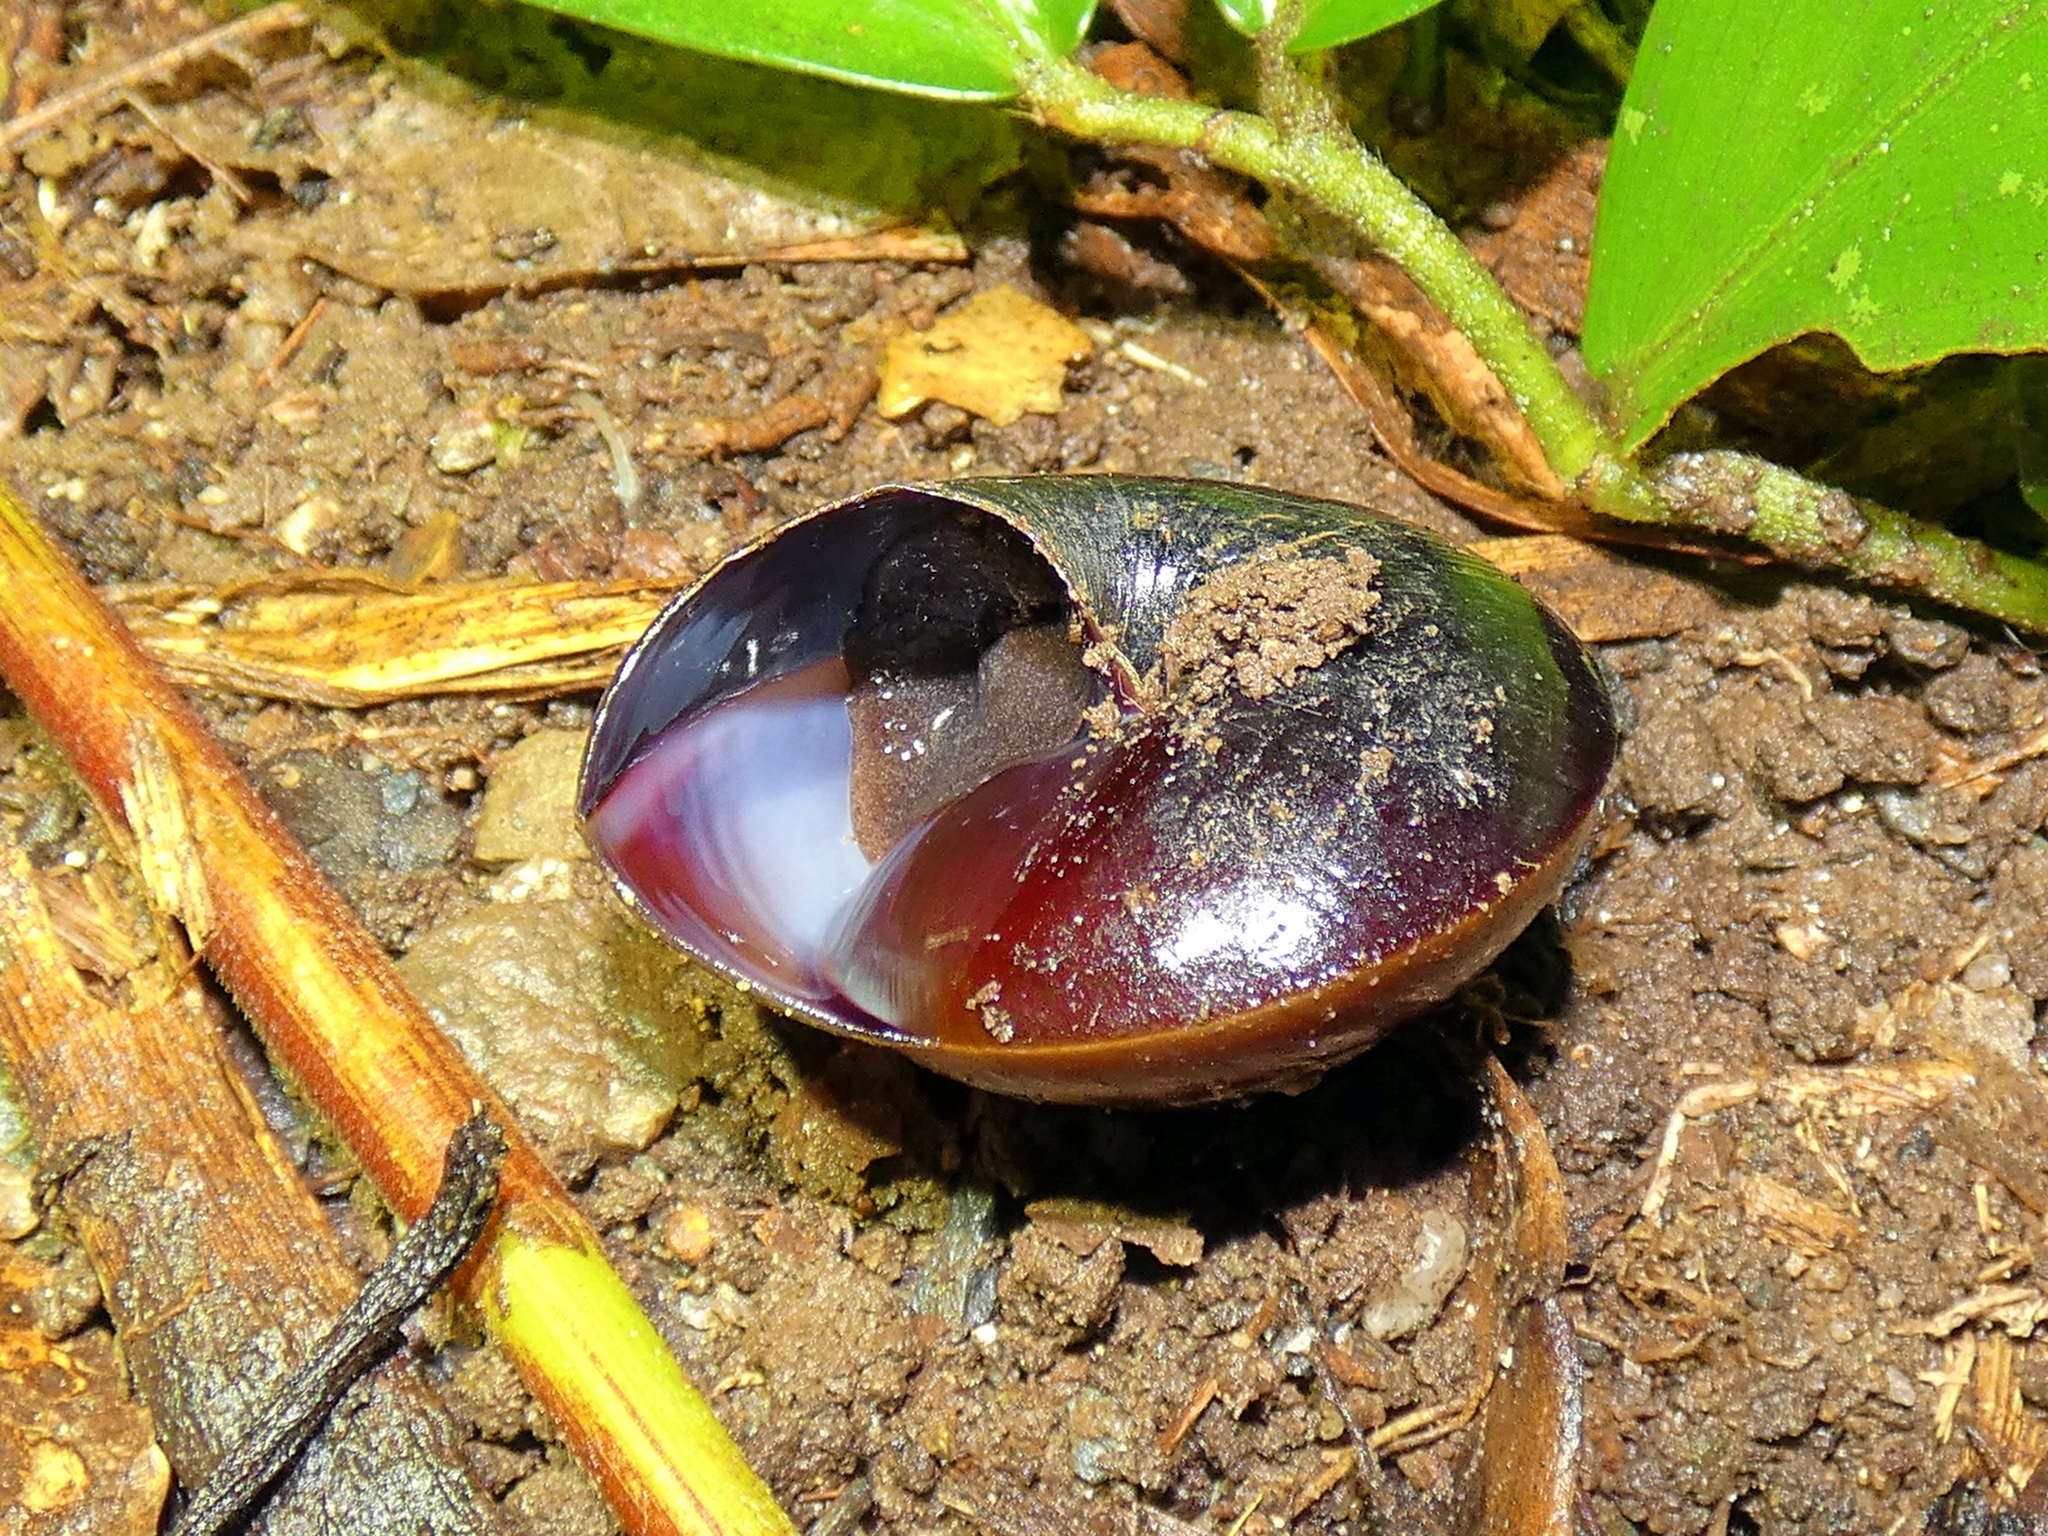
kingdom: Animalia
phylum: Mollusca
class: Gastropoda
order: Stylommatophora
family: Camaenidae
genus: Hadra
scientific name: Hadra bipartita
